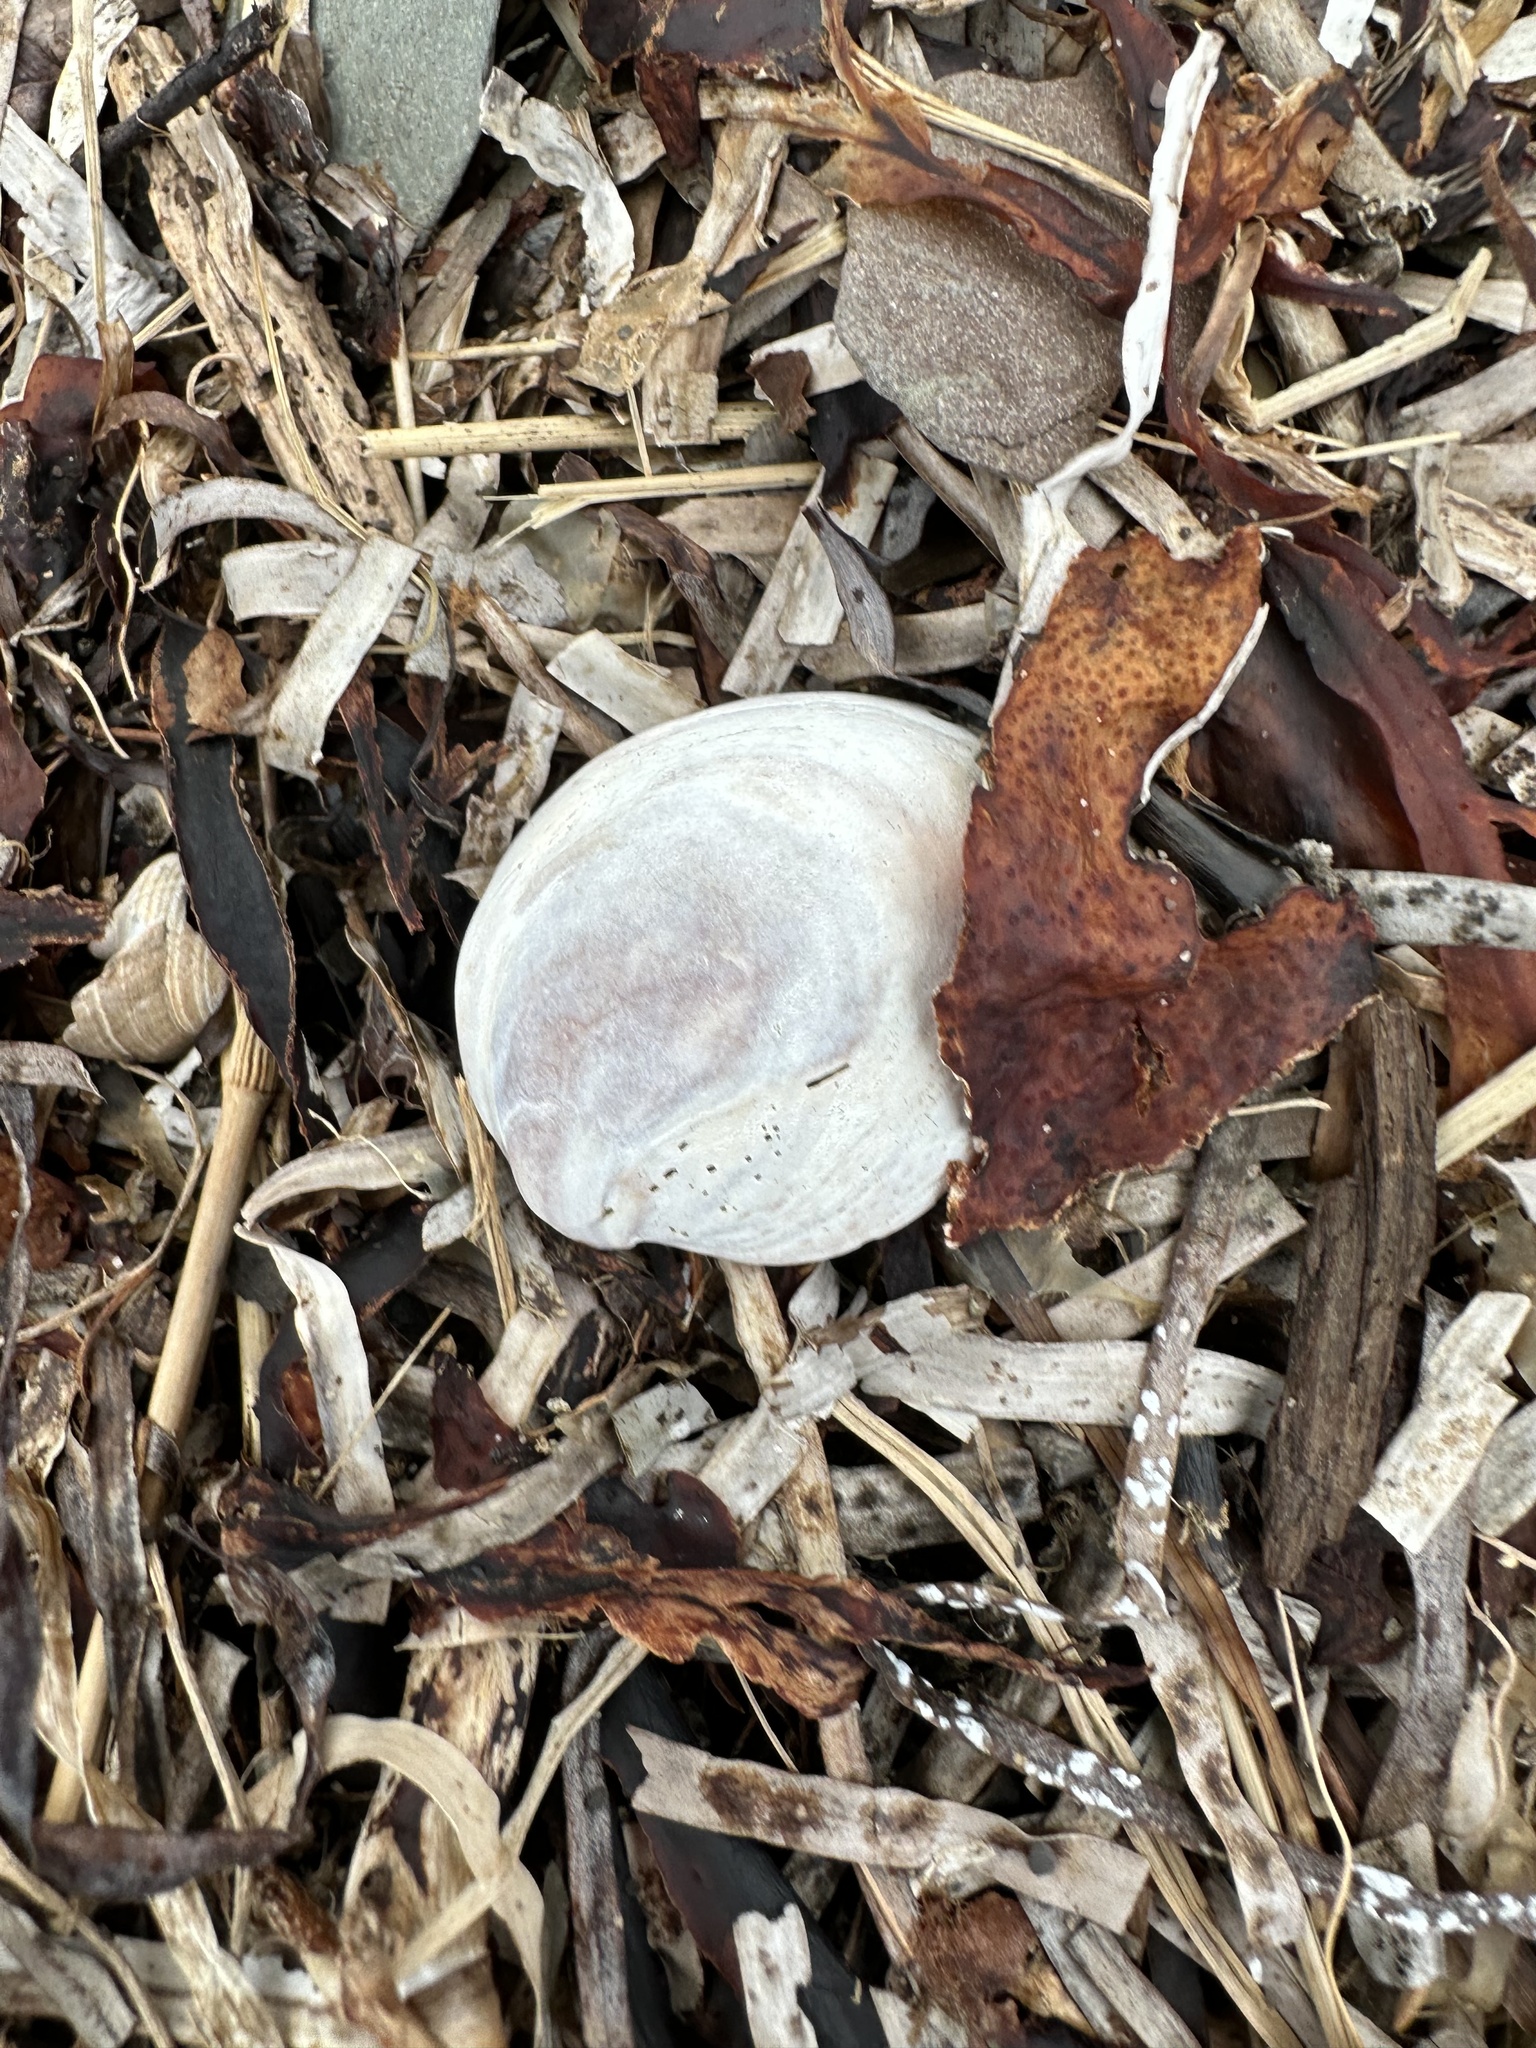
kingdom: Animalia
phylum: Mollusca
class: Gastropoda
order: Littorinimorpha
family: Calyptraeidae
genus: Crepidula
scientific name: Crepidula fornicata
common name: Slipper limpet
